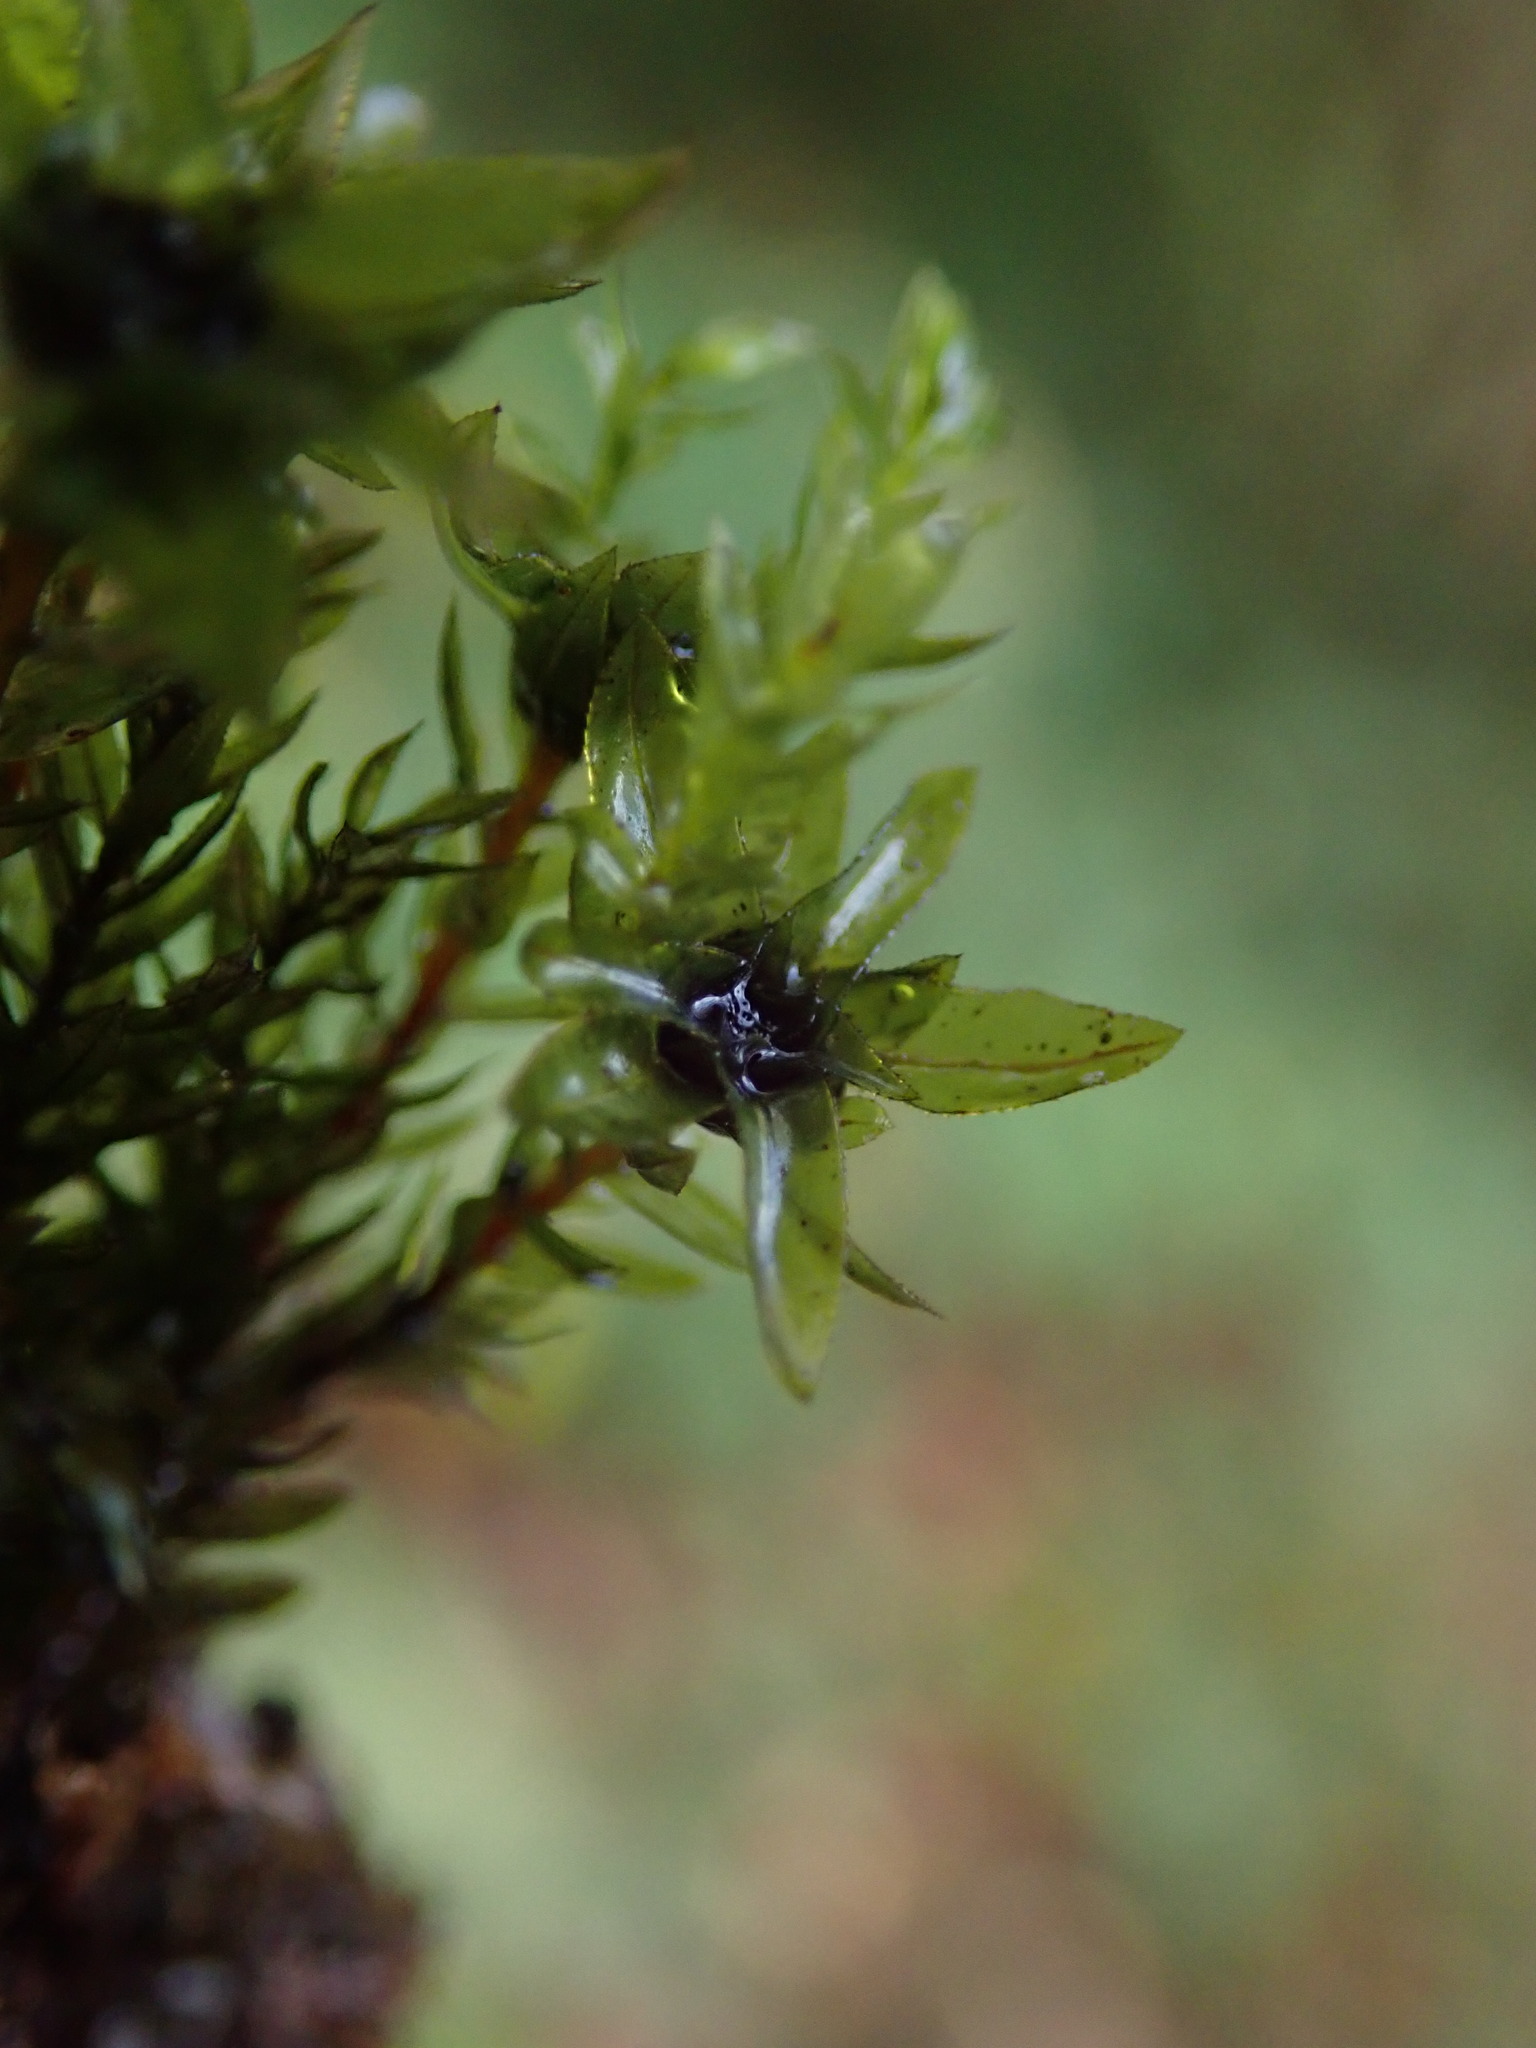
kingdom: Plantae
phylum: Bryophyta
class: Bryopsida
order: Bryales
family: Mniaceae
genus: Mnium
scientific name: Mnium hornum
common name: Swan's-neck leafy moss
